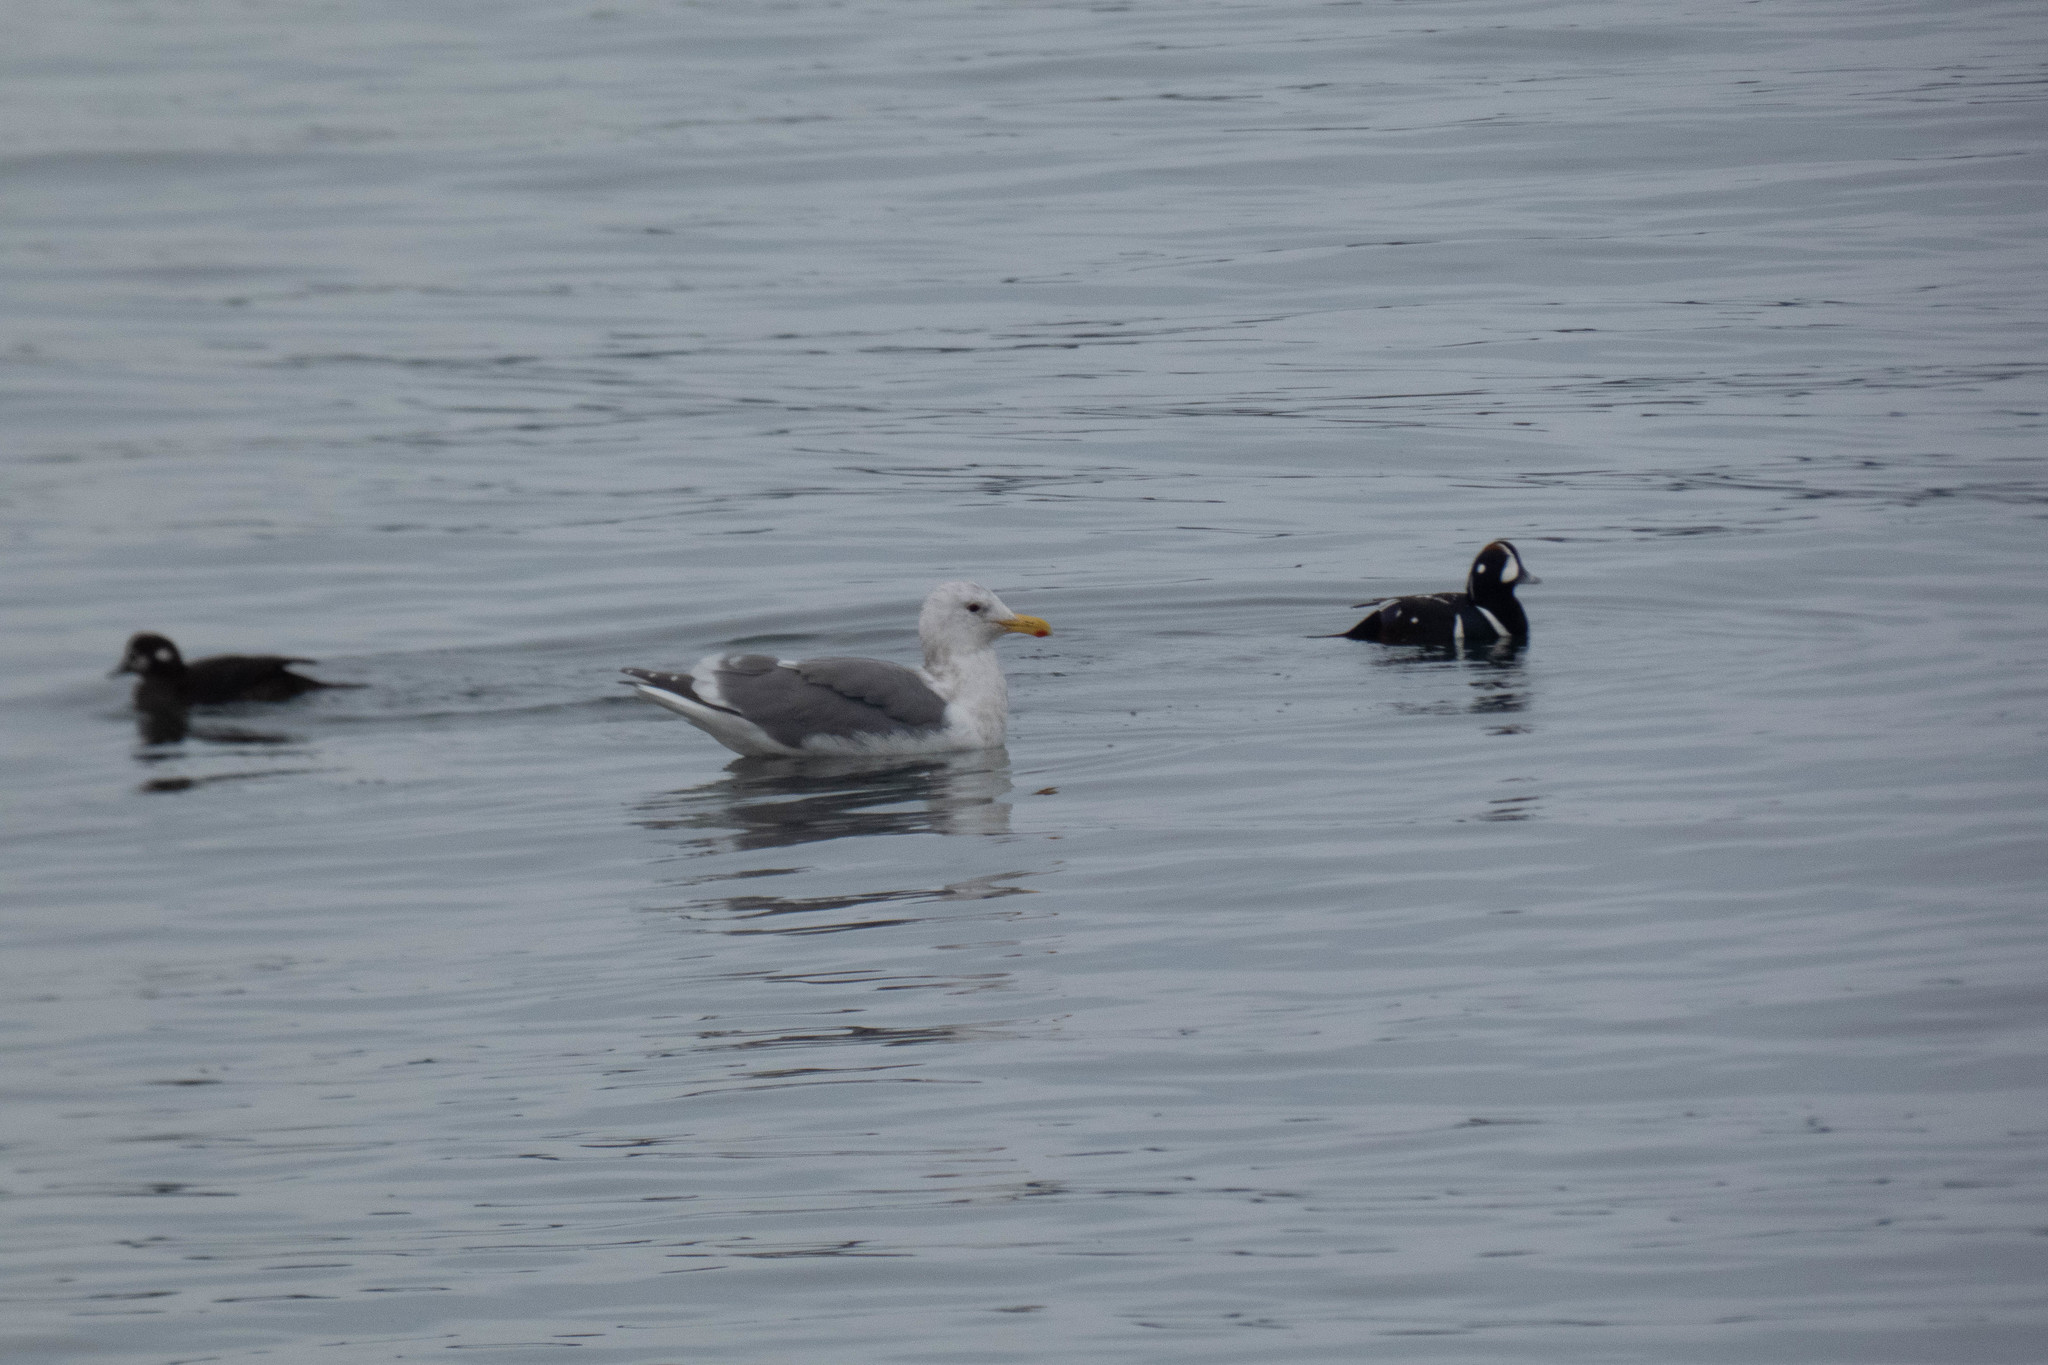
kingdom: Animalia
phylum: Chordata
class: Aves
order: Charadriiformes
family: Laridae
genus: Larus
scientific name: Larus
